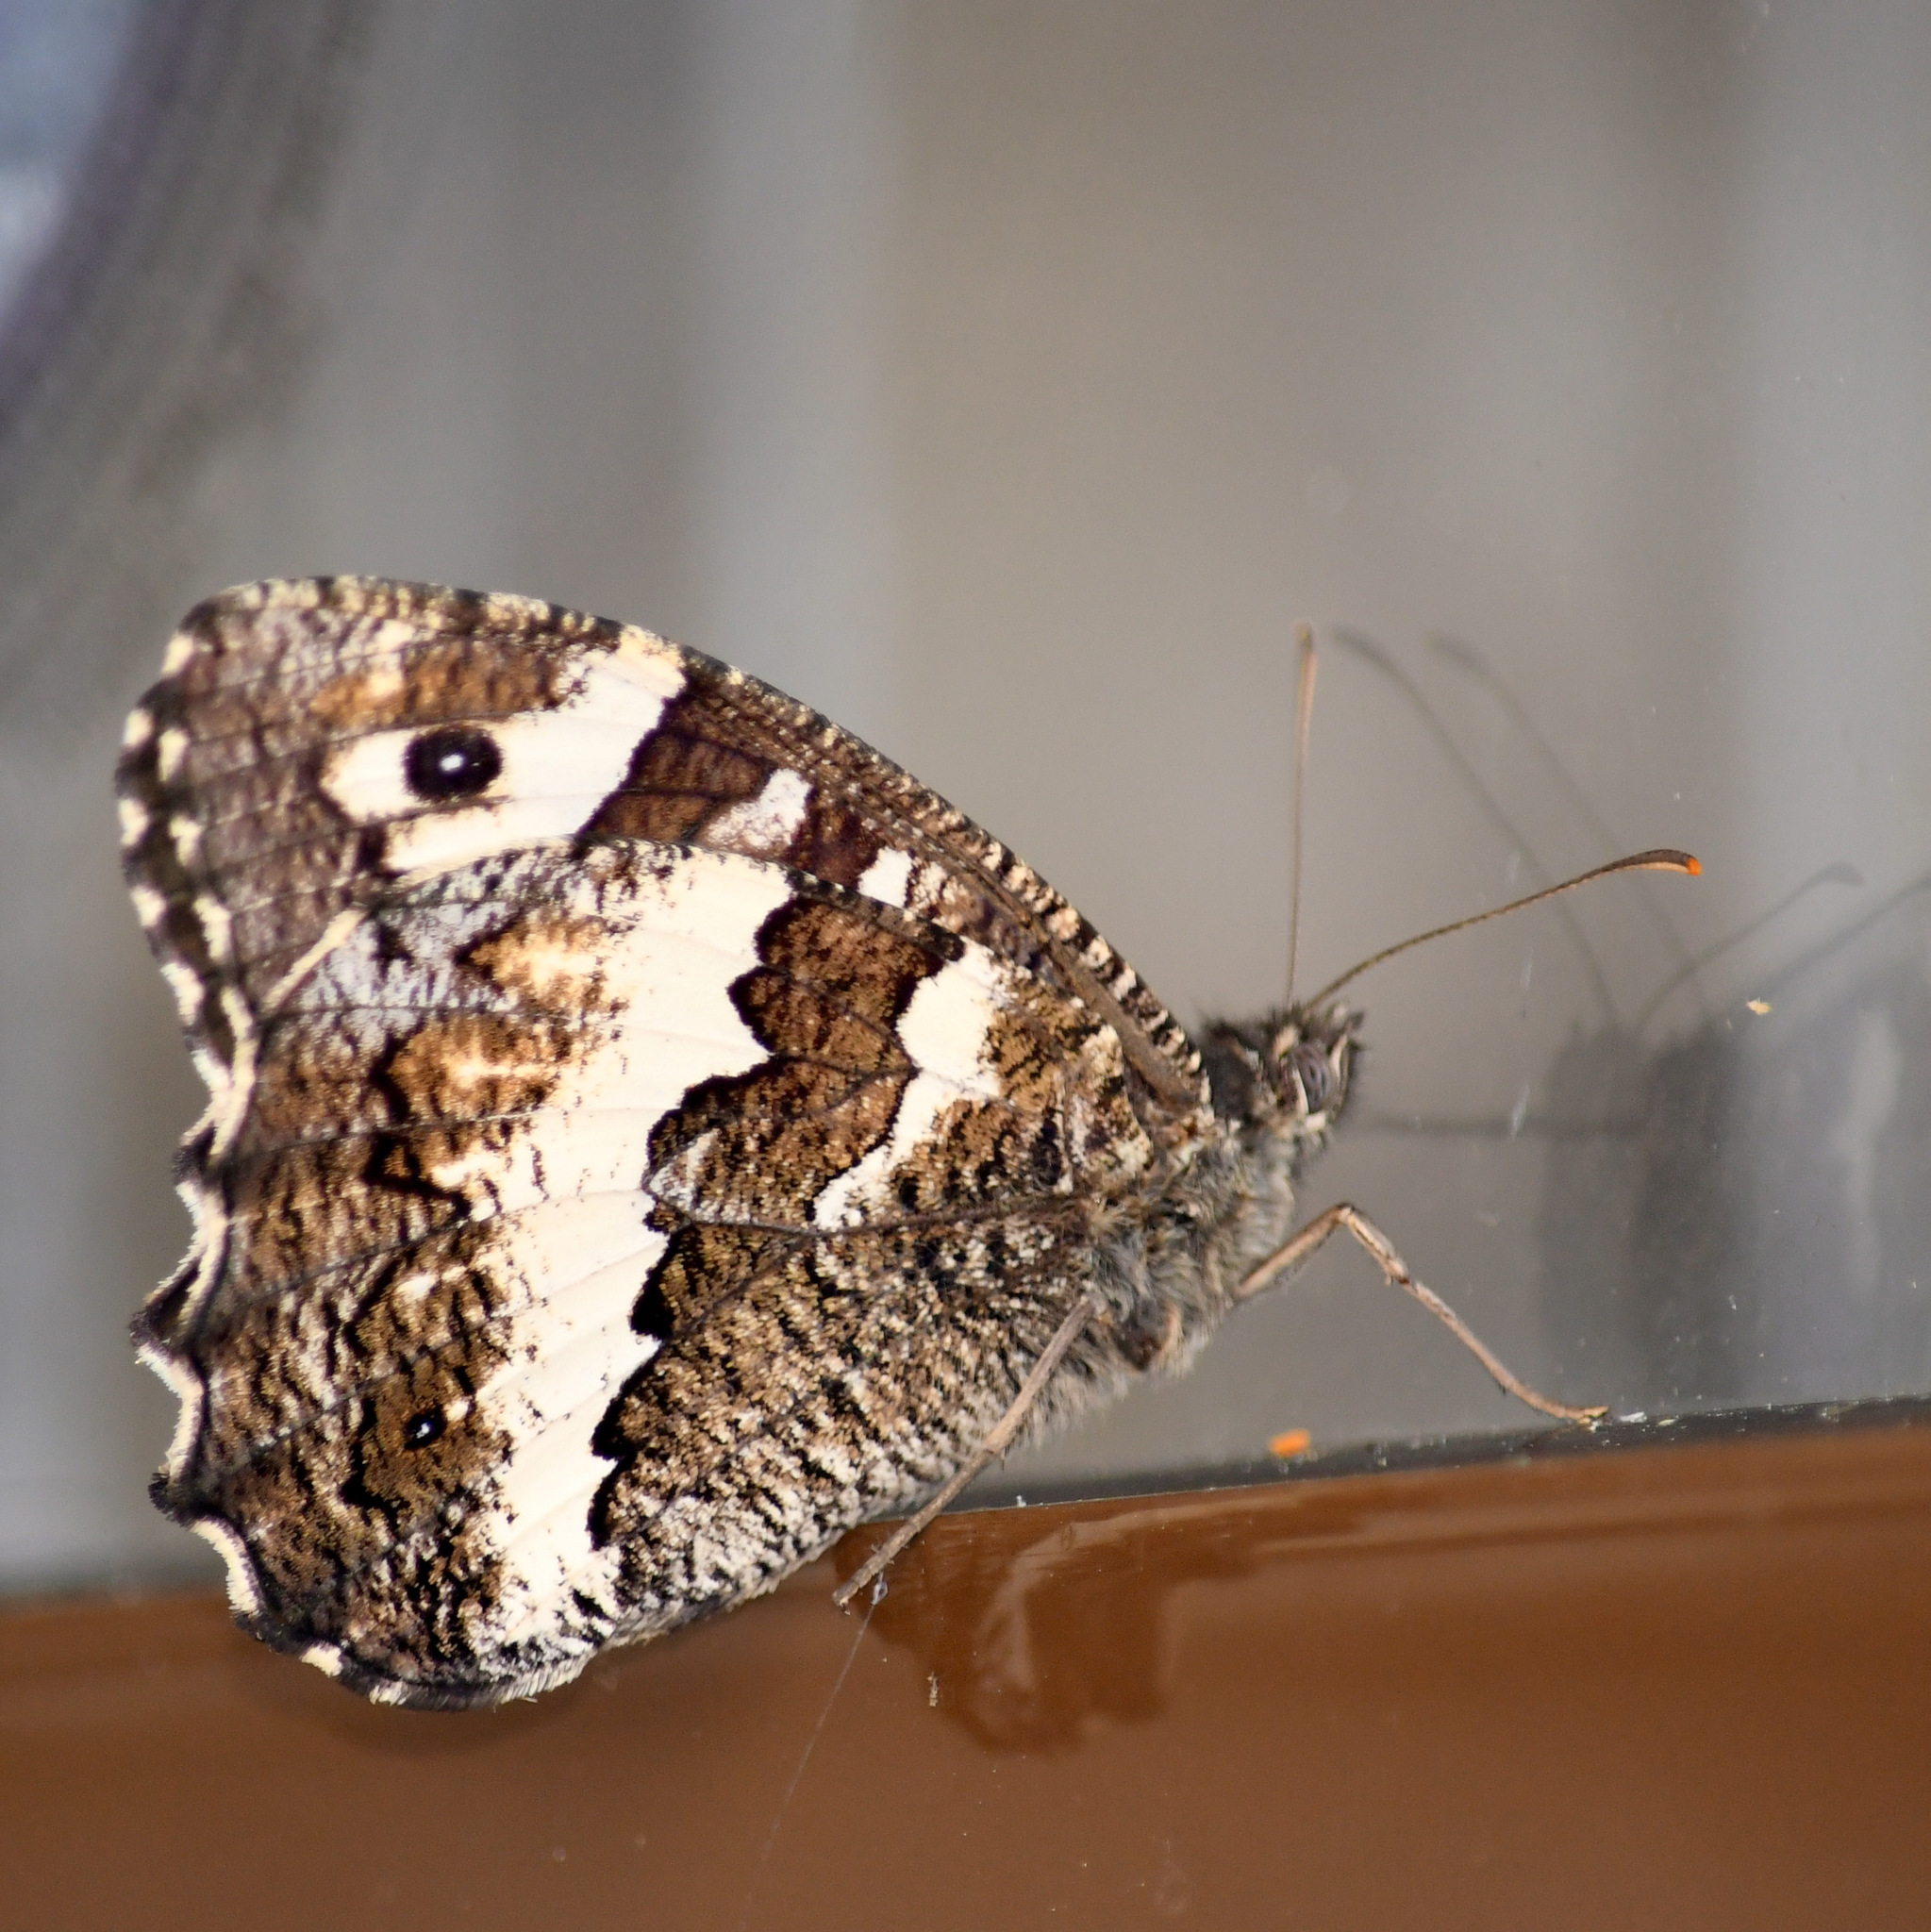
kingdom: Animalia
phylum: Arthropoda
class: Insecta
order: Lepidoptera
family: Lycaenidae
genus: Loweia
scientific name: Loweia tityrus
